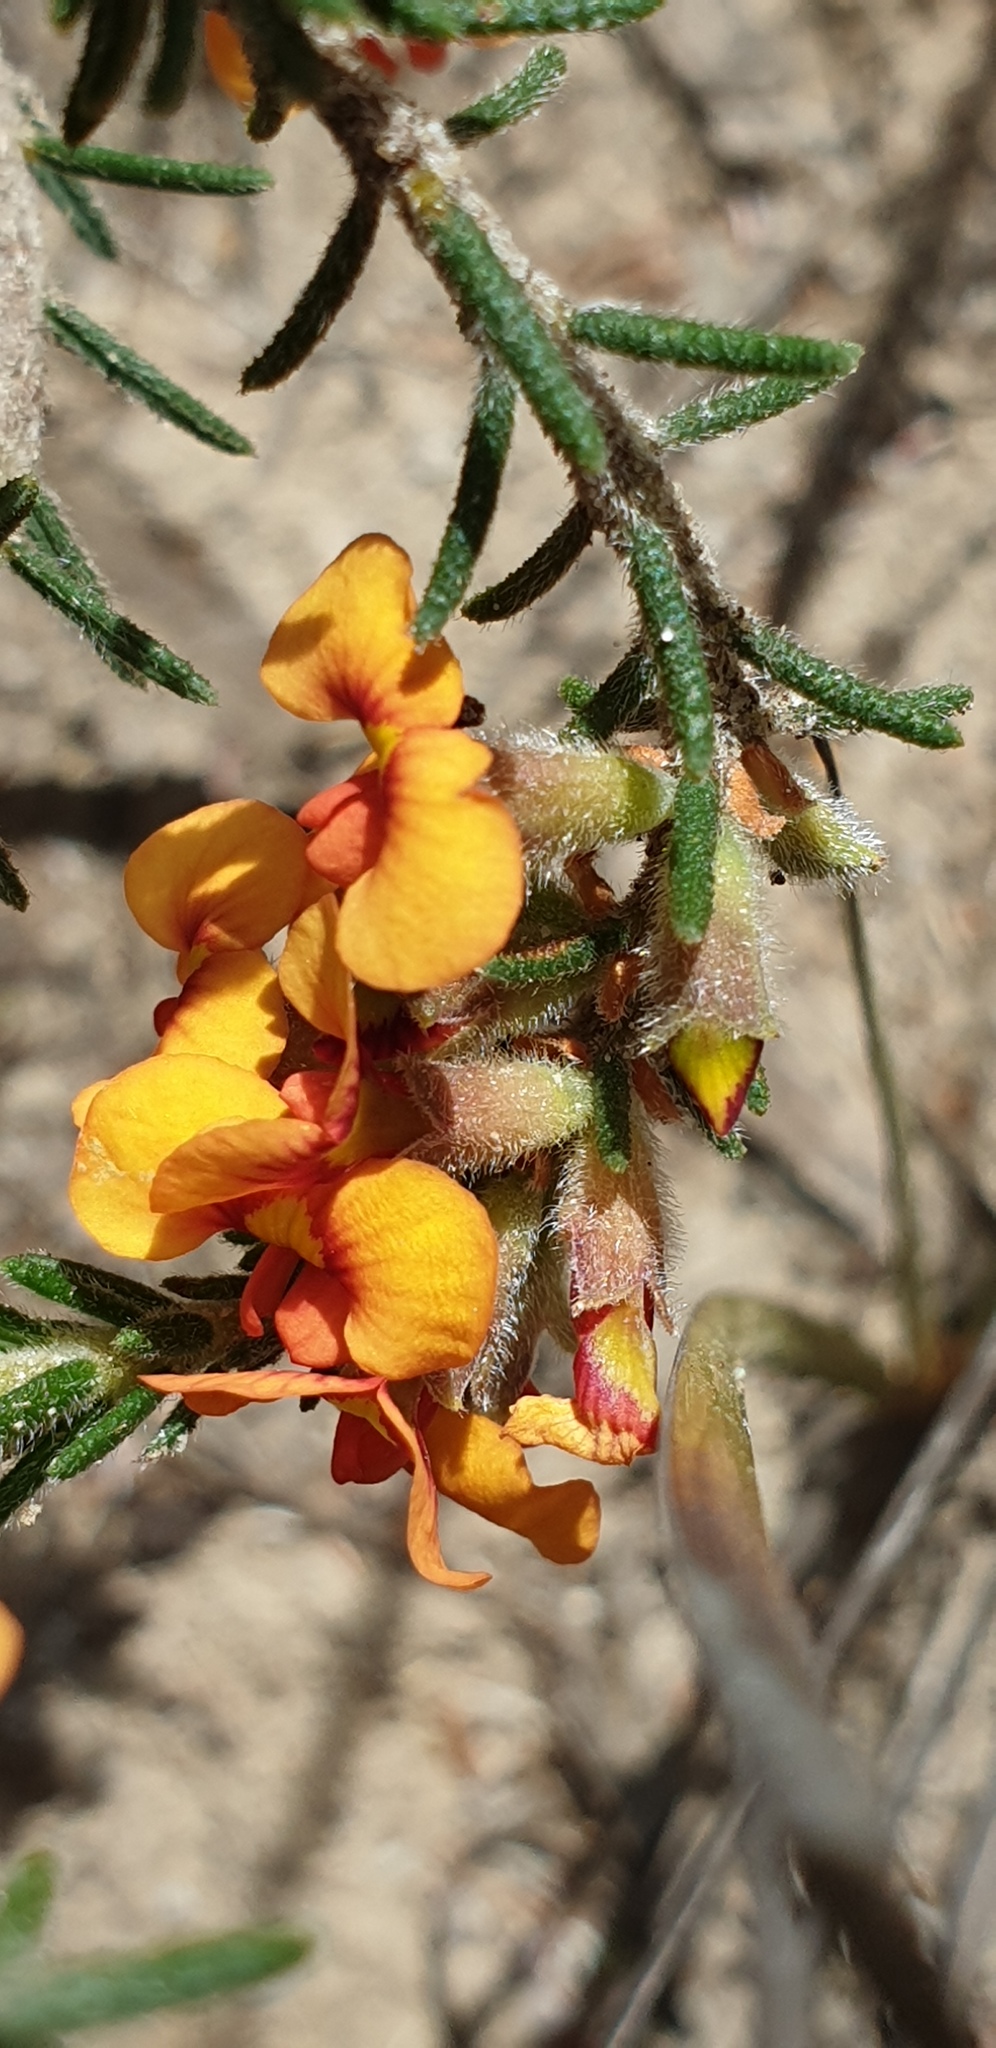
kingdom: Plantae
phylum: Tracheophyta
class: Magnoliopsida
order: Fabales
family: Fabaceae
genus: Dillwynia
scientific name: Dillwynia sericea
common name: Showy parrot-pea
